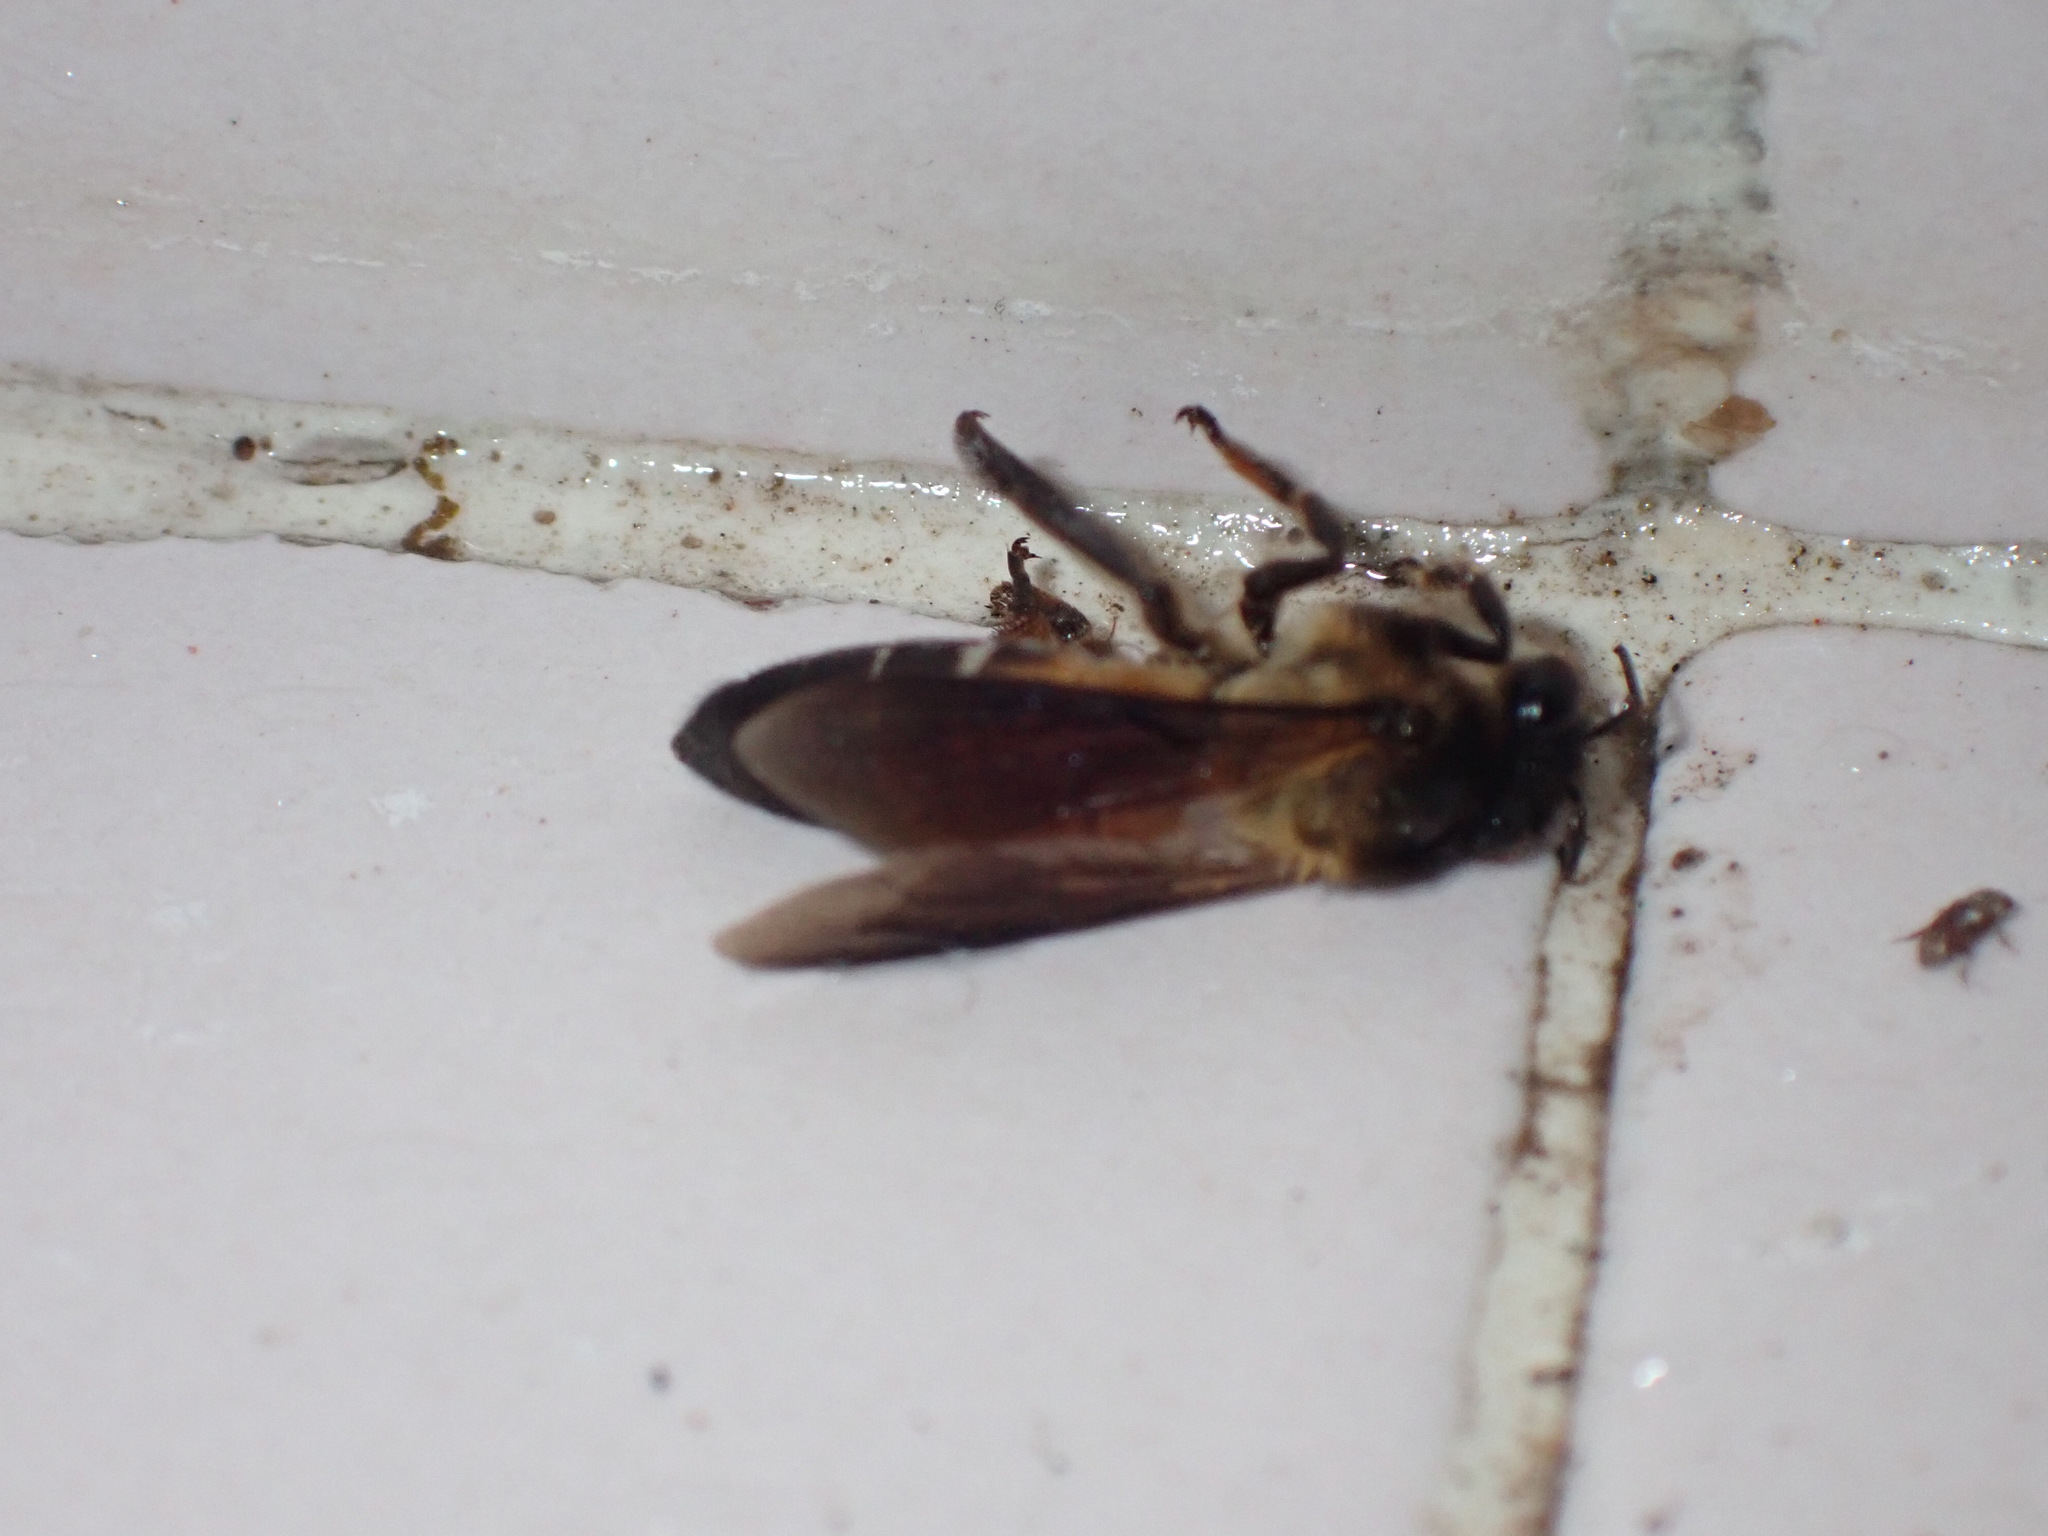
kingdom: Animalia
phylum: Arthropoda
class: Insecta
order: Hymenoptera
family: Apidae
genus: Apis
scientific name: Apis dorsata
